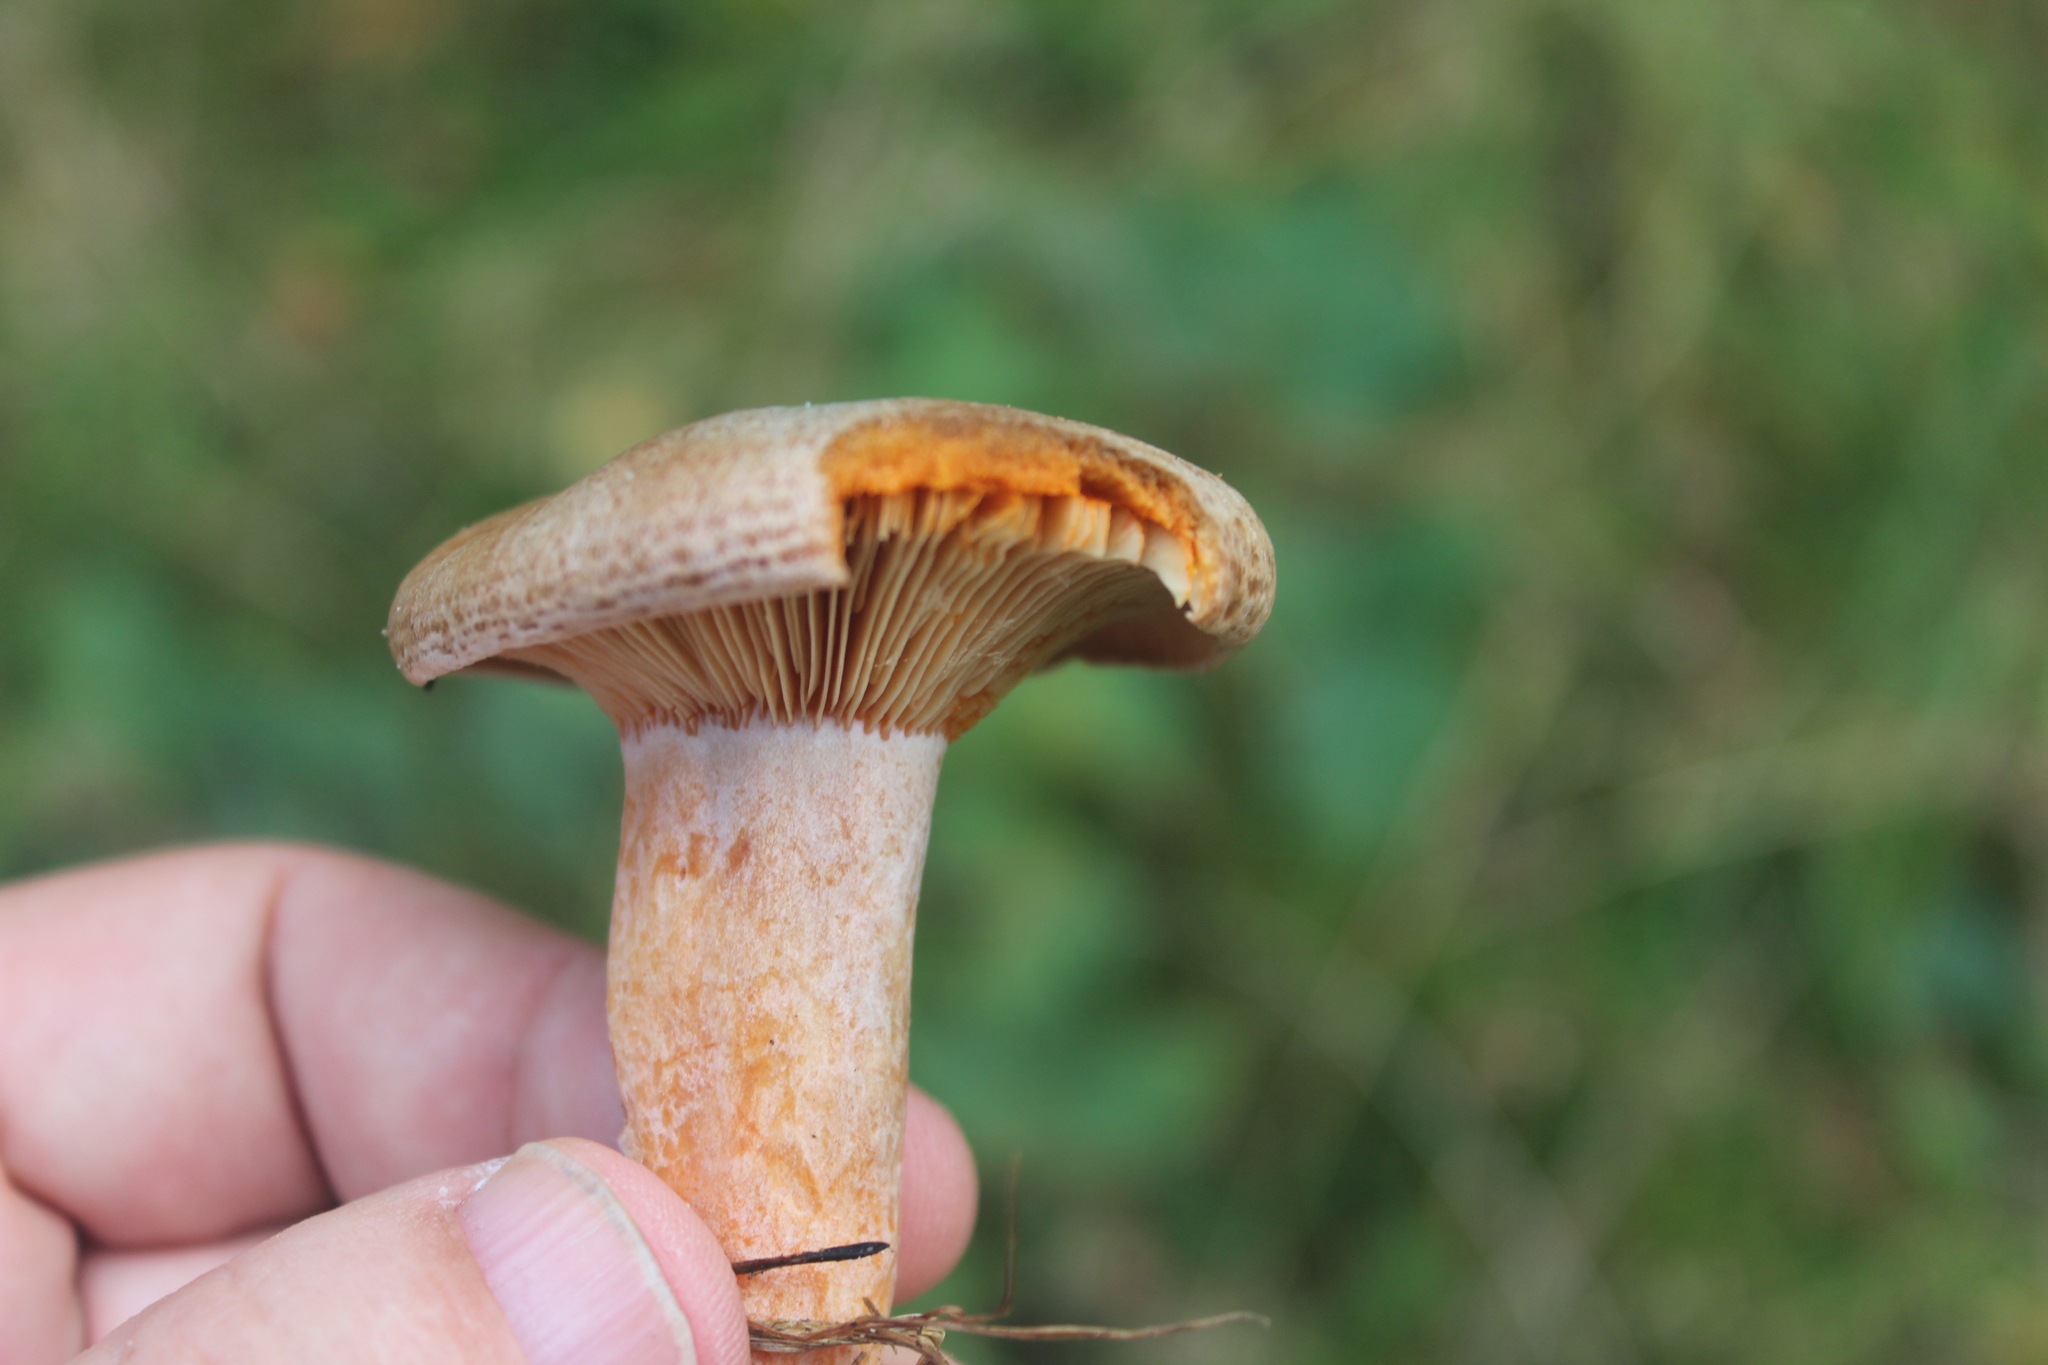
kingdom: Fungi
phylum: Basidiomycota
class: Agaricomycetes
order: Russulales
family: Russulaceae
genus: Lactarius
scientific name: Lactarius quietus
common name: Oak milk-cap
